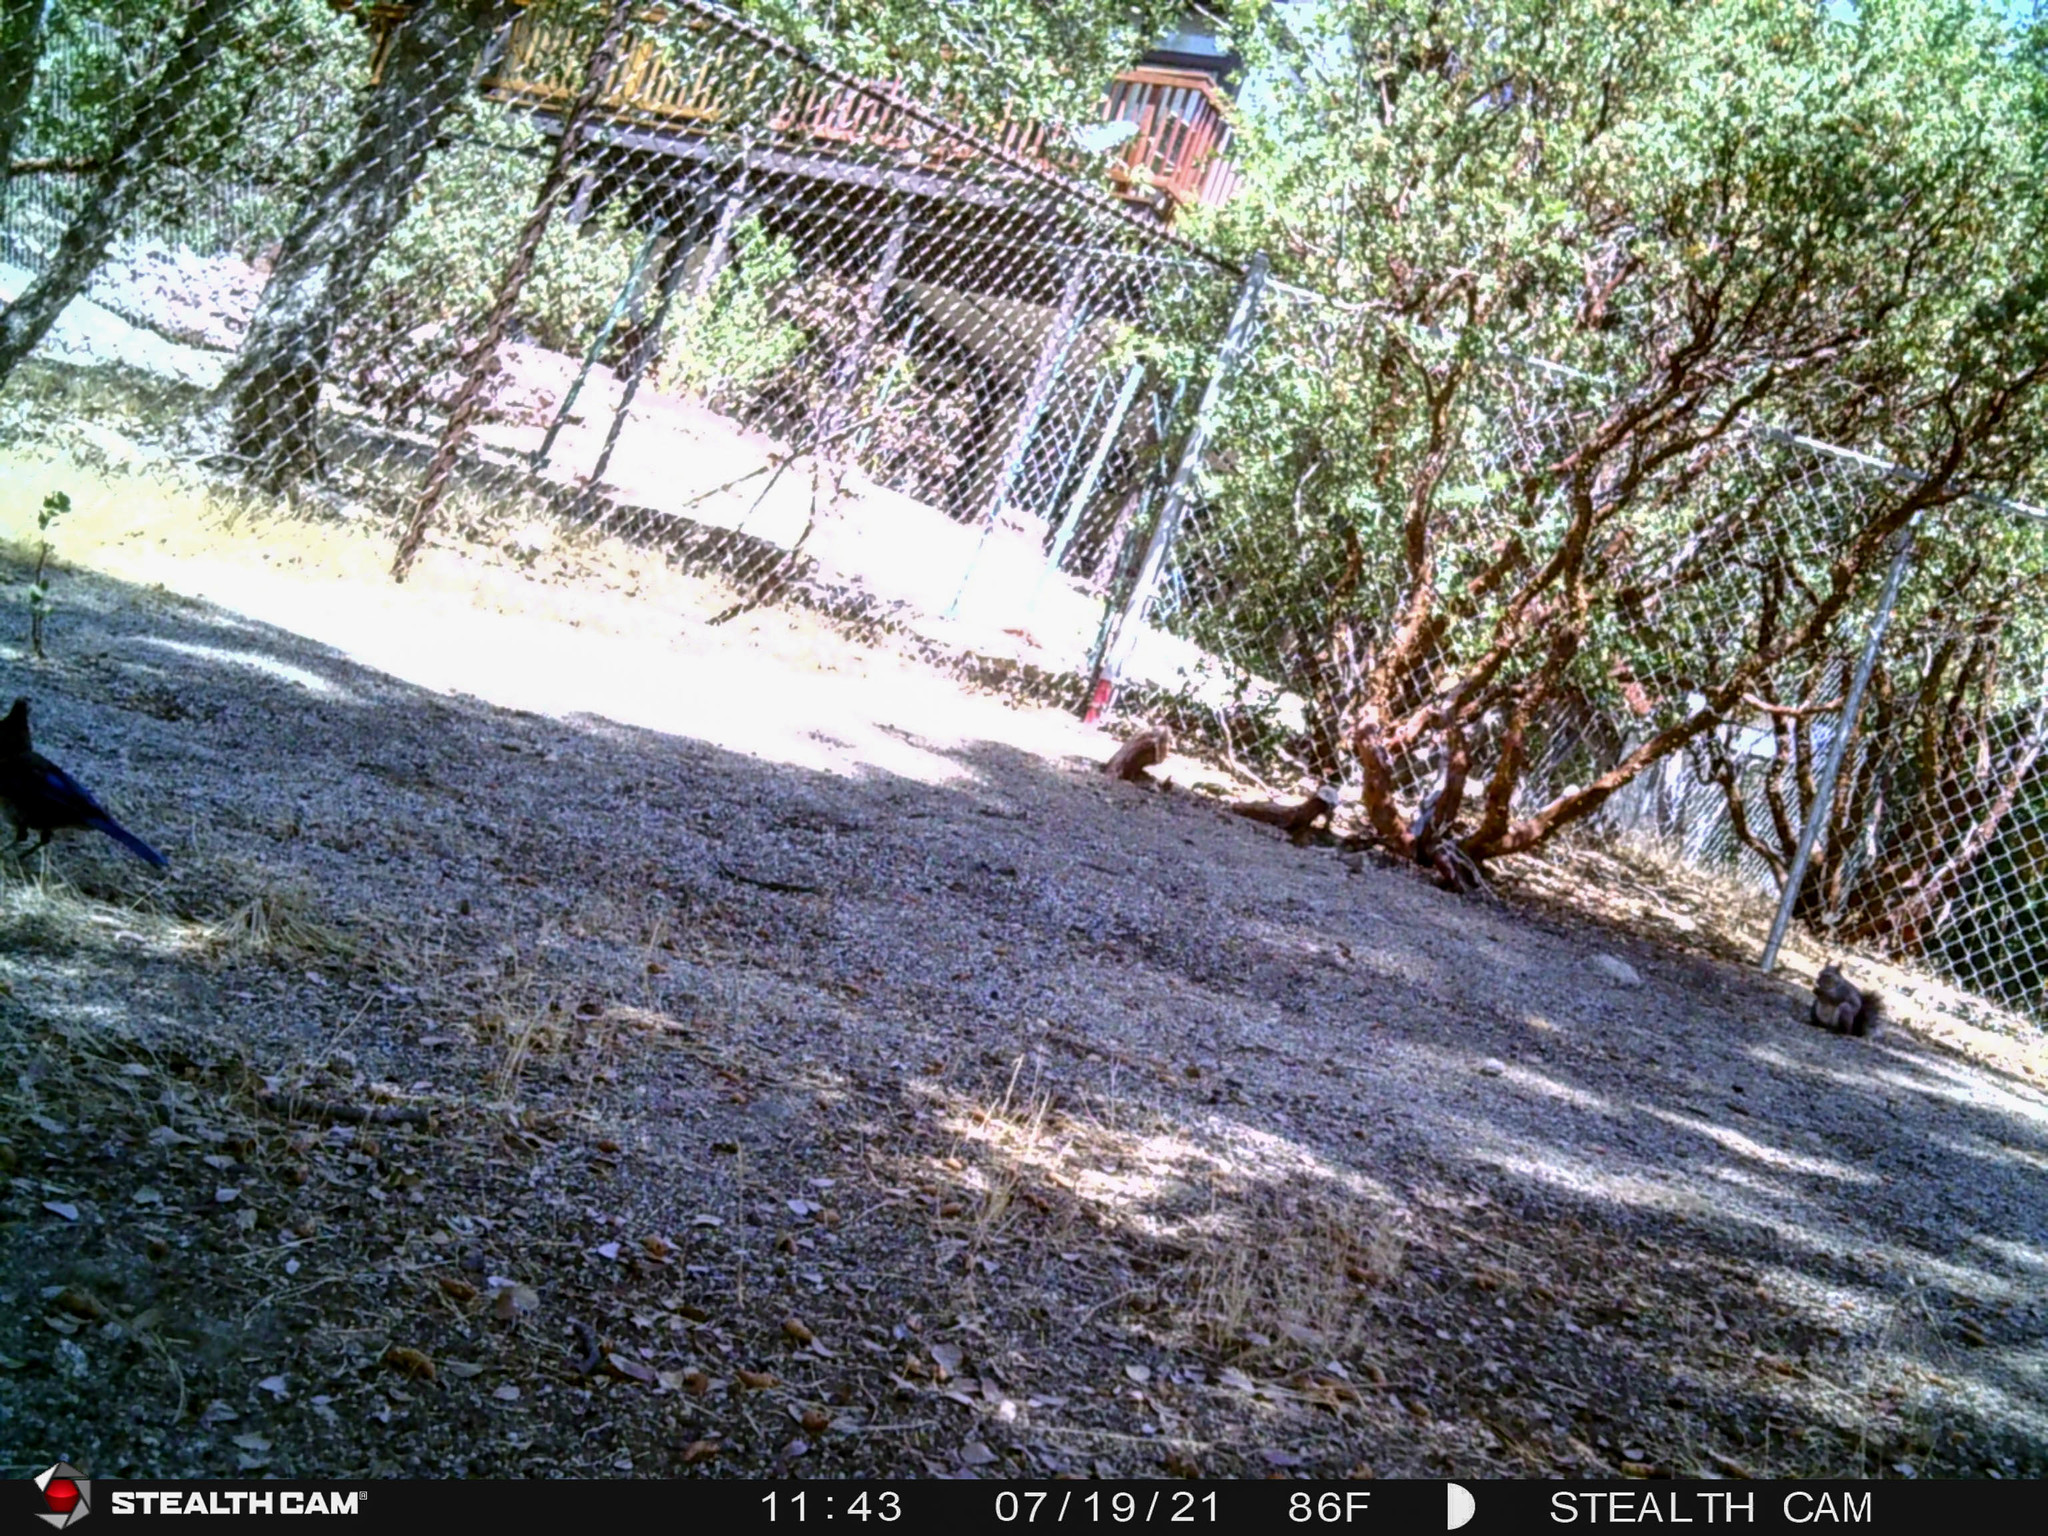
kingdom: Animalia
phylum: Chordata
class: Mammalia
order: Rodentia
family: Sciuridae
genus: Sciurus
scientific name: Sciurus griseus
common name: Western gray squirrel
